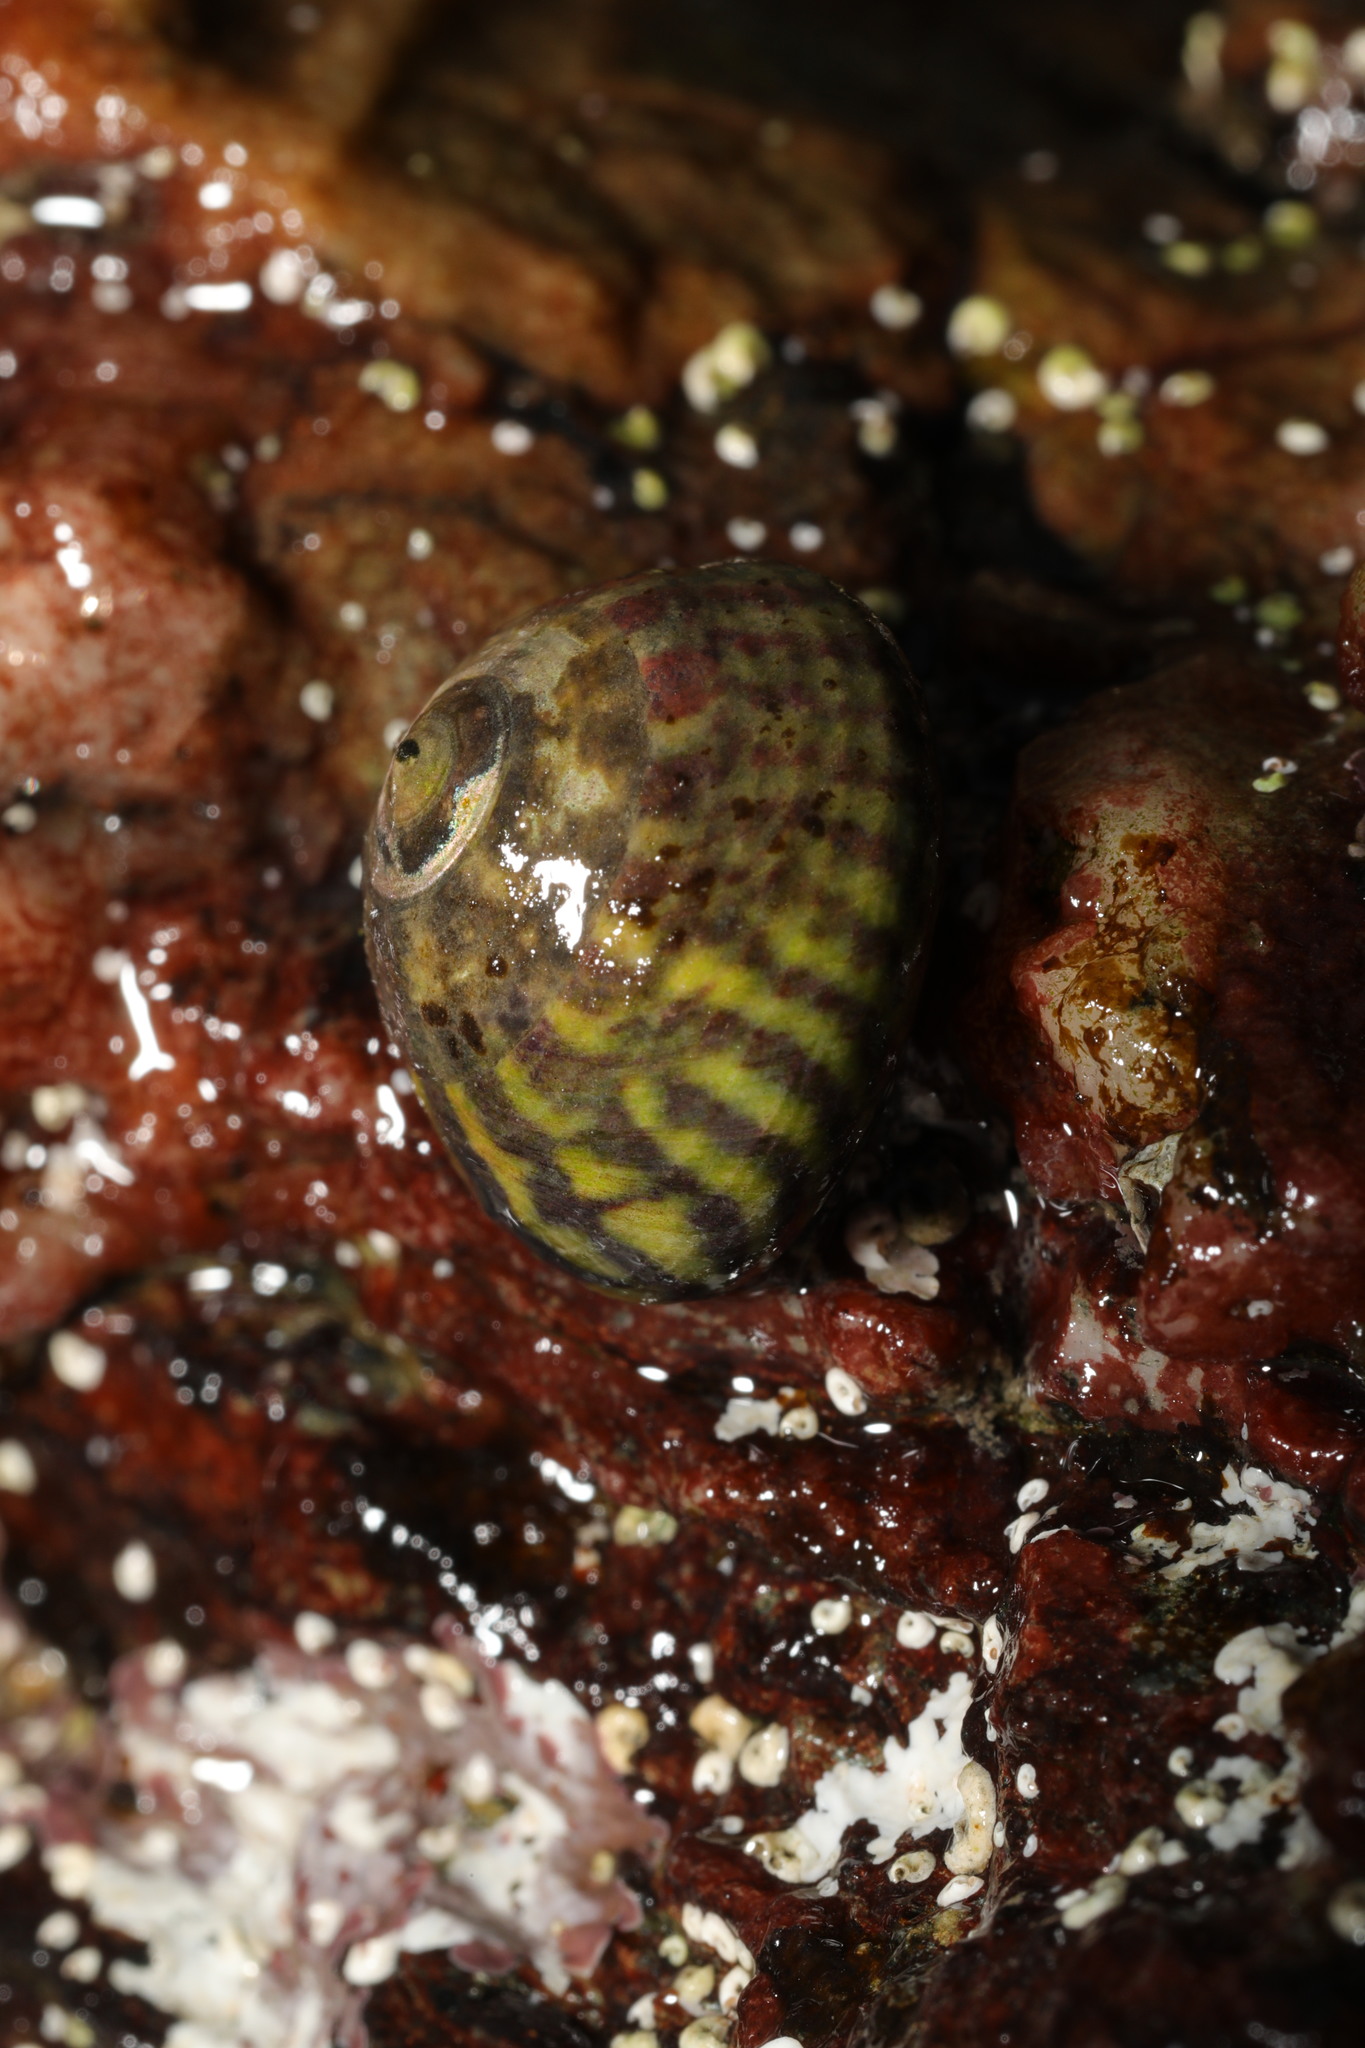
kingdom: Animalia
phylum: Mollusca
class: Gastropoda
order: Trochida
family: Trochidae
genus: Steromphala
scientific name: Steromphala umbilicalis
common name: Flat top shell
